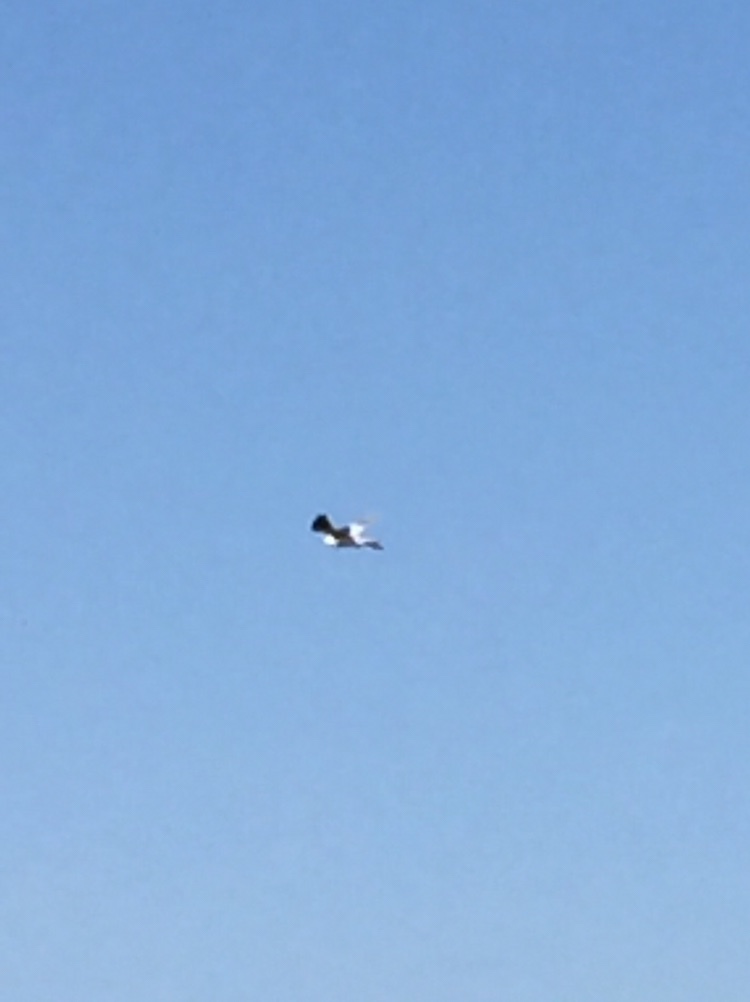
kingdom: Animalia
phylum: Chordata
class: Aves
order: Accipitriformes
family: Accipitridae
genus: Elanus
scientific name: Elanus leucurus
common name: White-tailed kite
